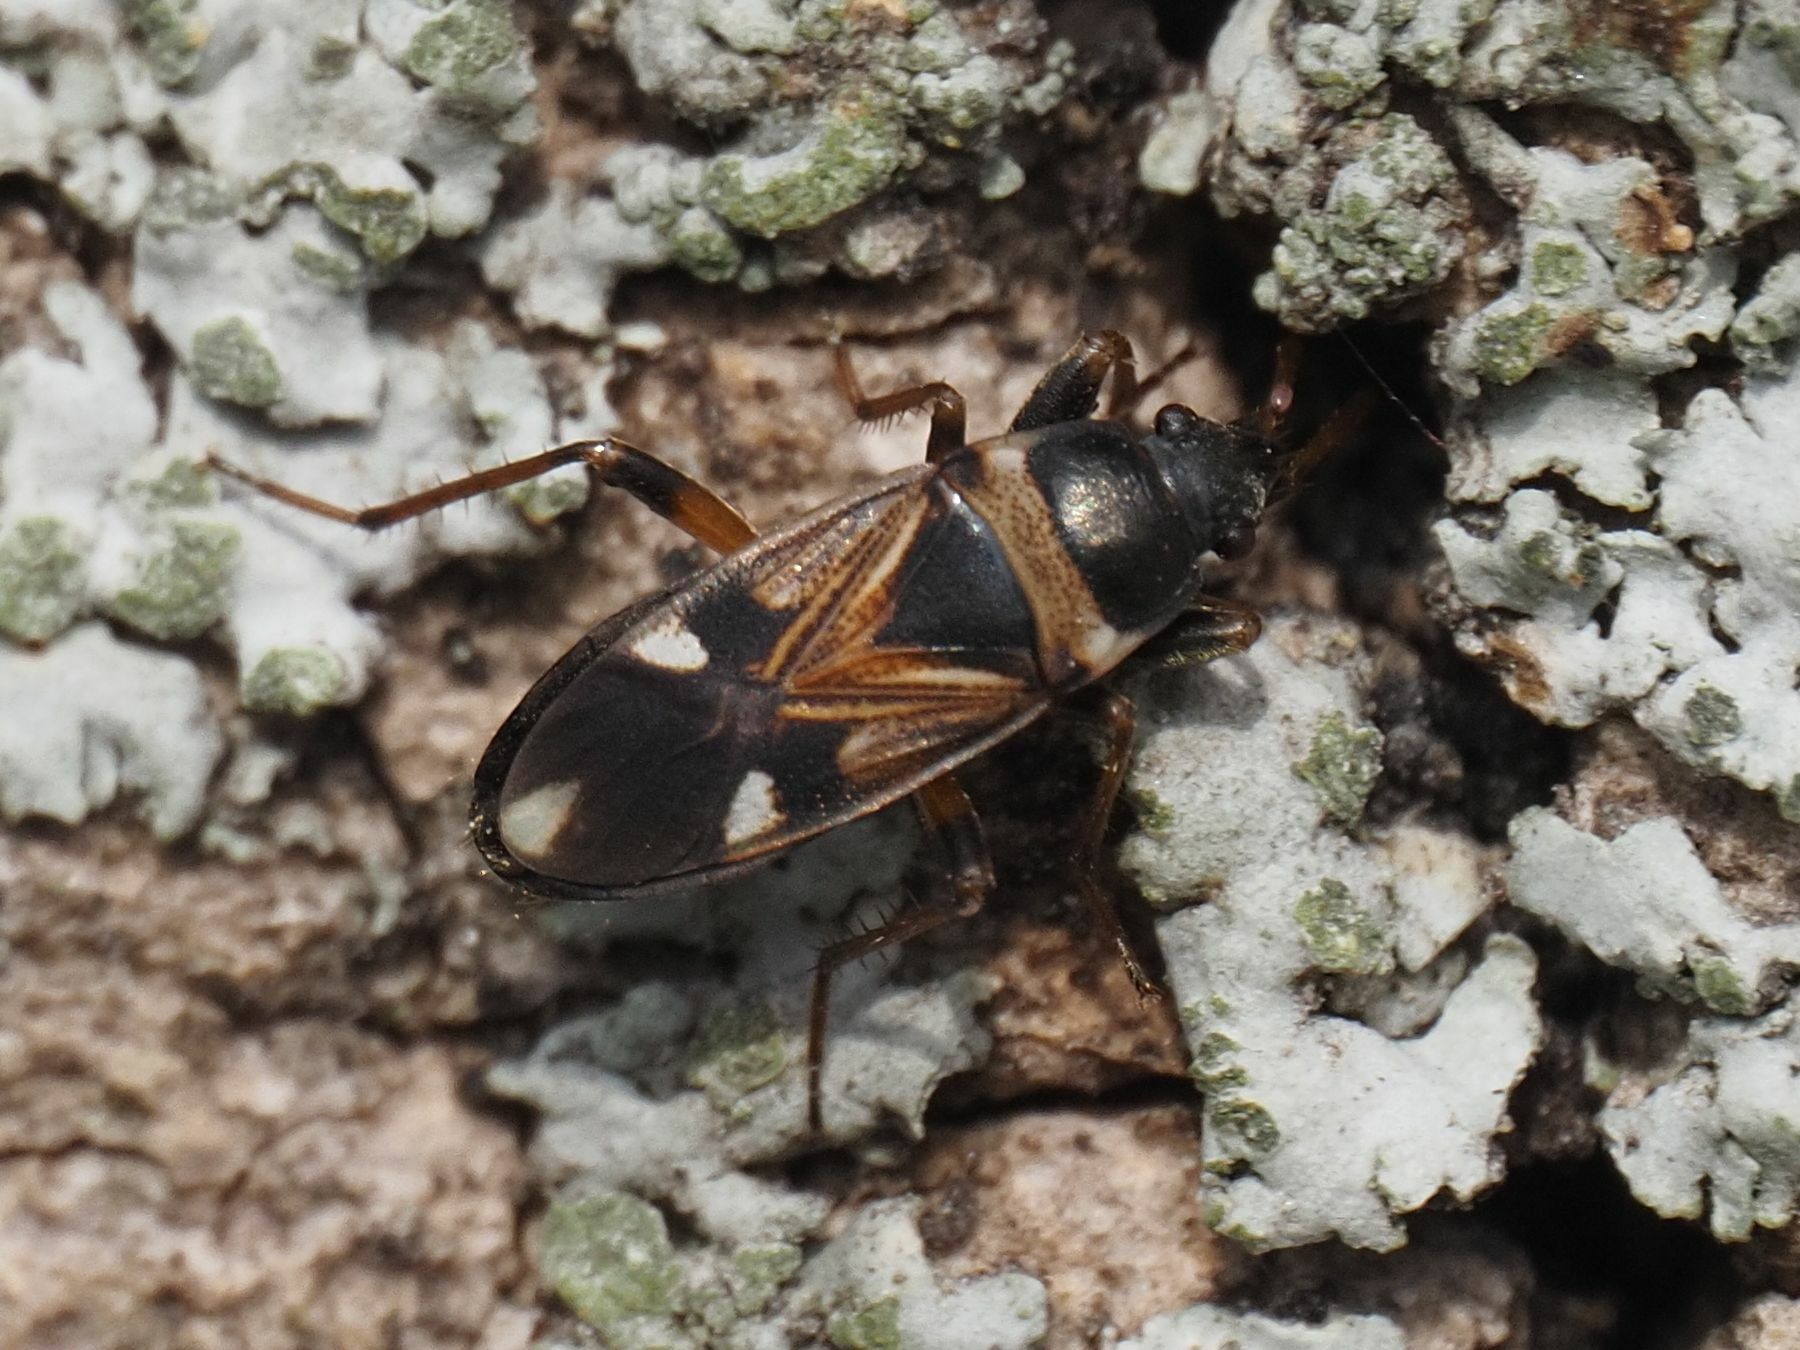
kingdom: Animalia
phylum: Arthropoda
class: Insecta
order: Hemiptera
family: Rhyparochromidae
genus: Raglius
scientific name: Raglius alboacuminatus
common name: Dirt-colored seed bug
